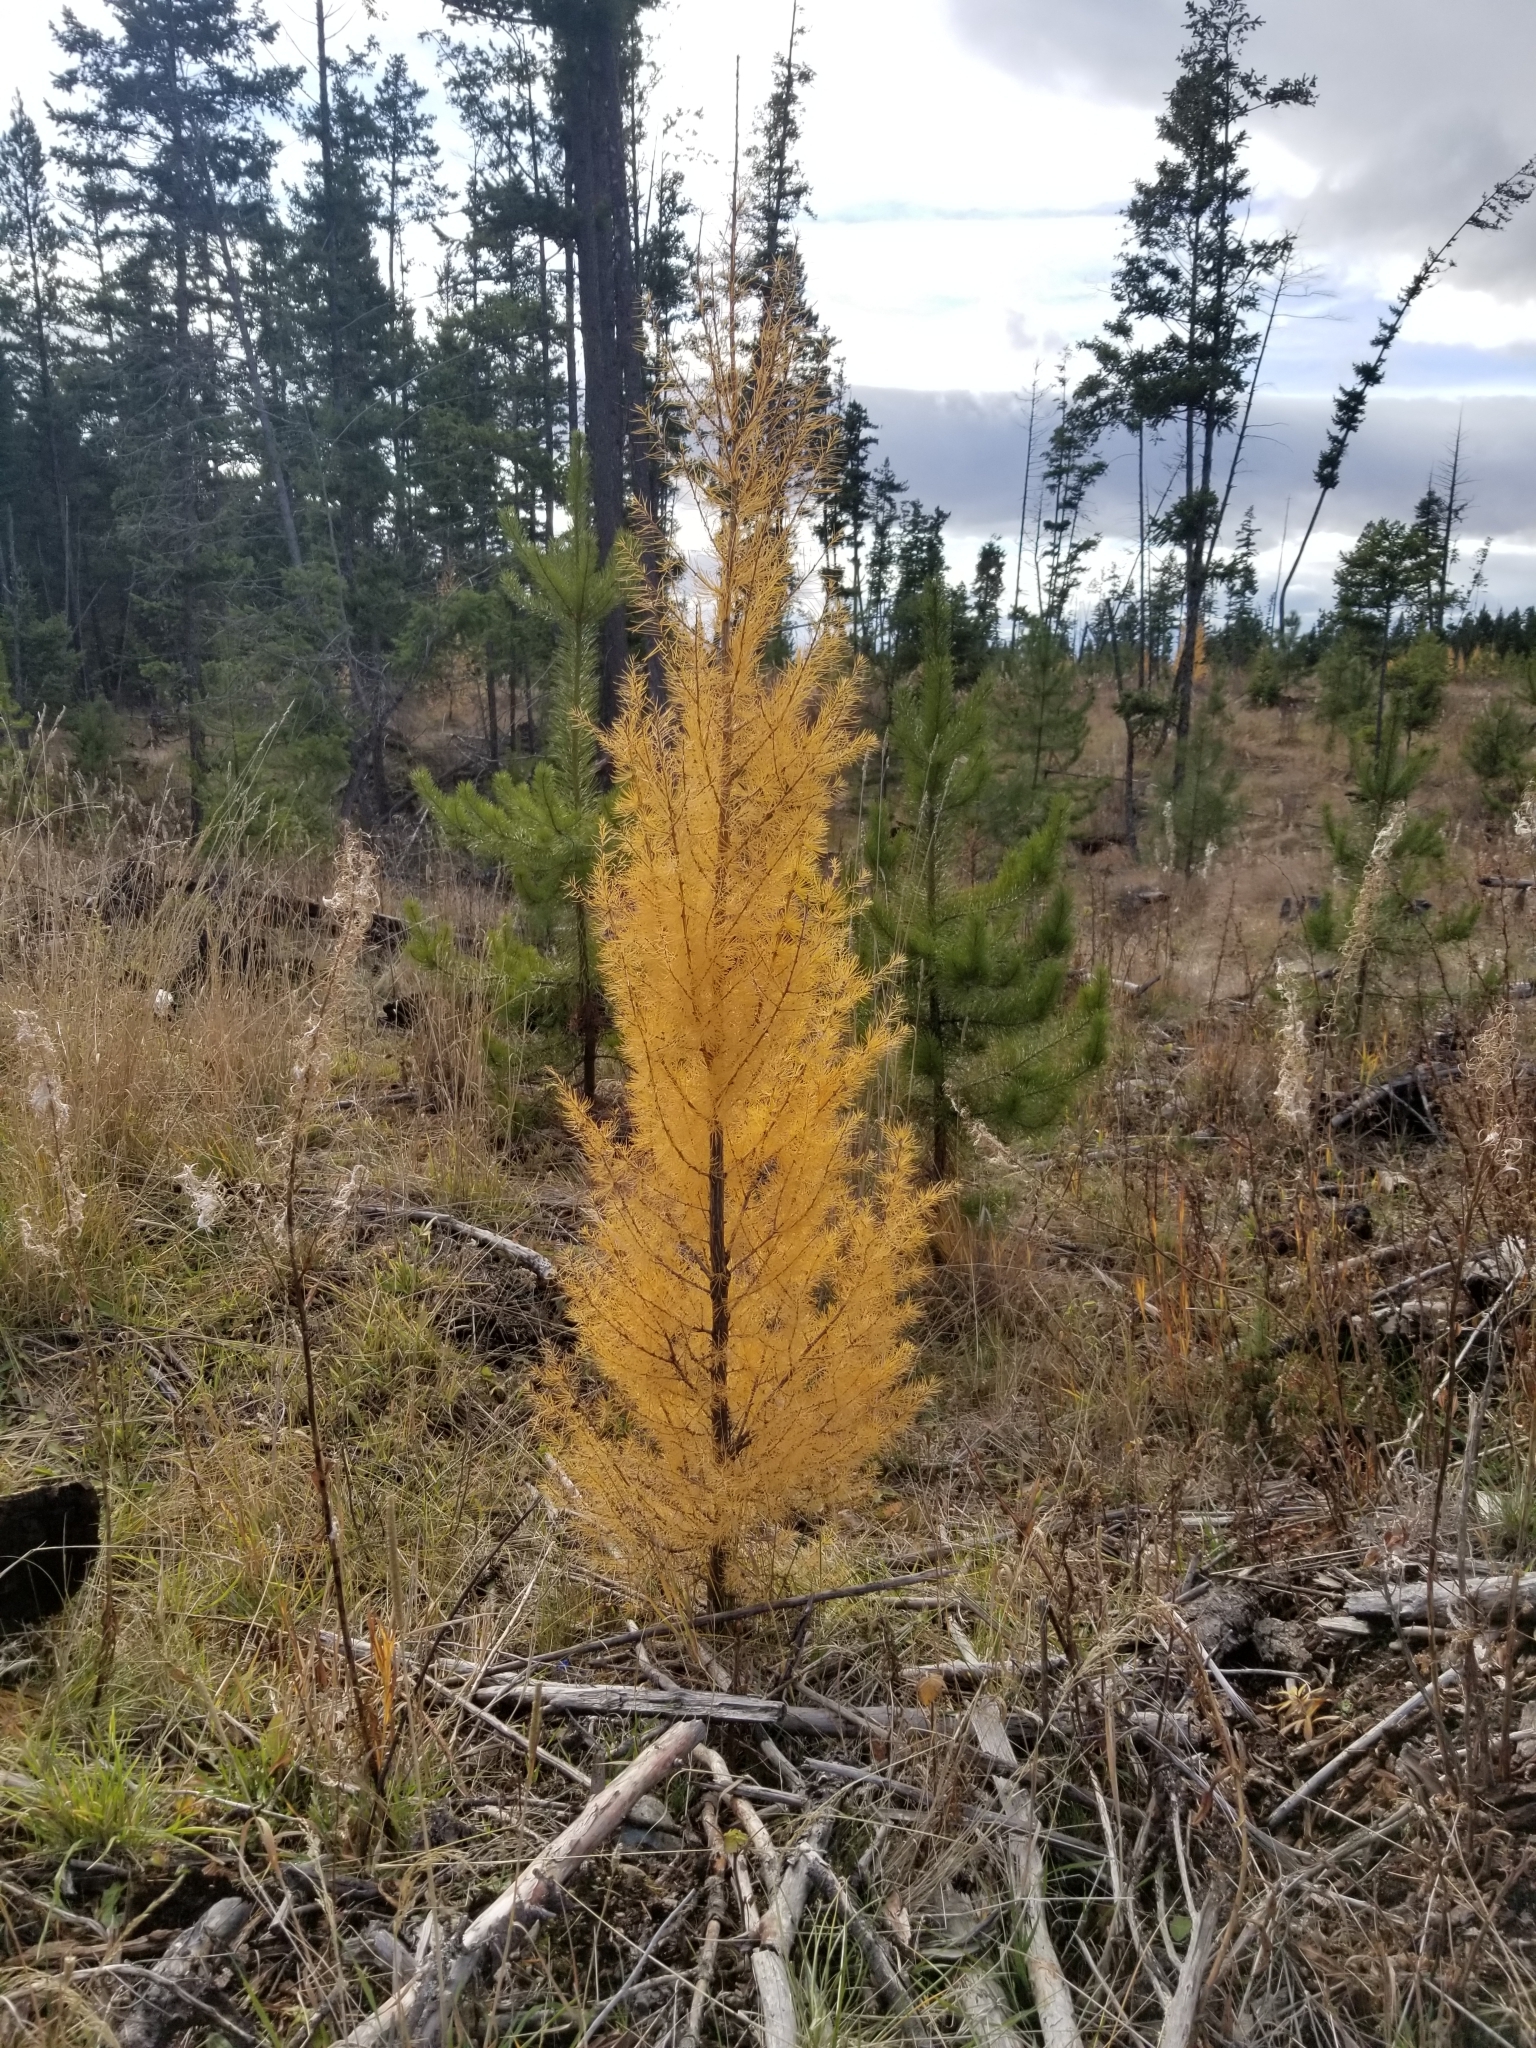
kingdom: Plantae
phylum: Tracheophyta
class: Pinopsida
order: Pinales
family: Pinaceae
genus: Larix
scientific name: Larix occidentalis
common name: Western larch
